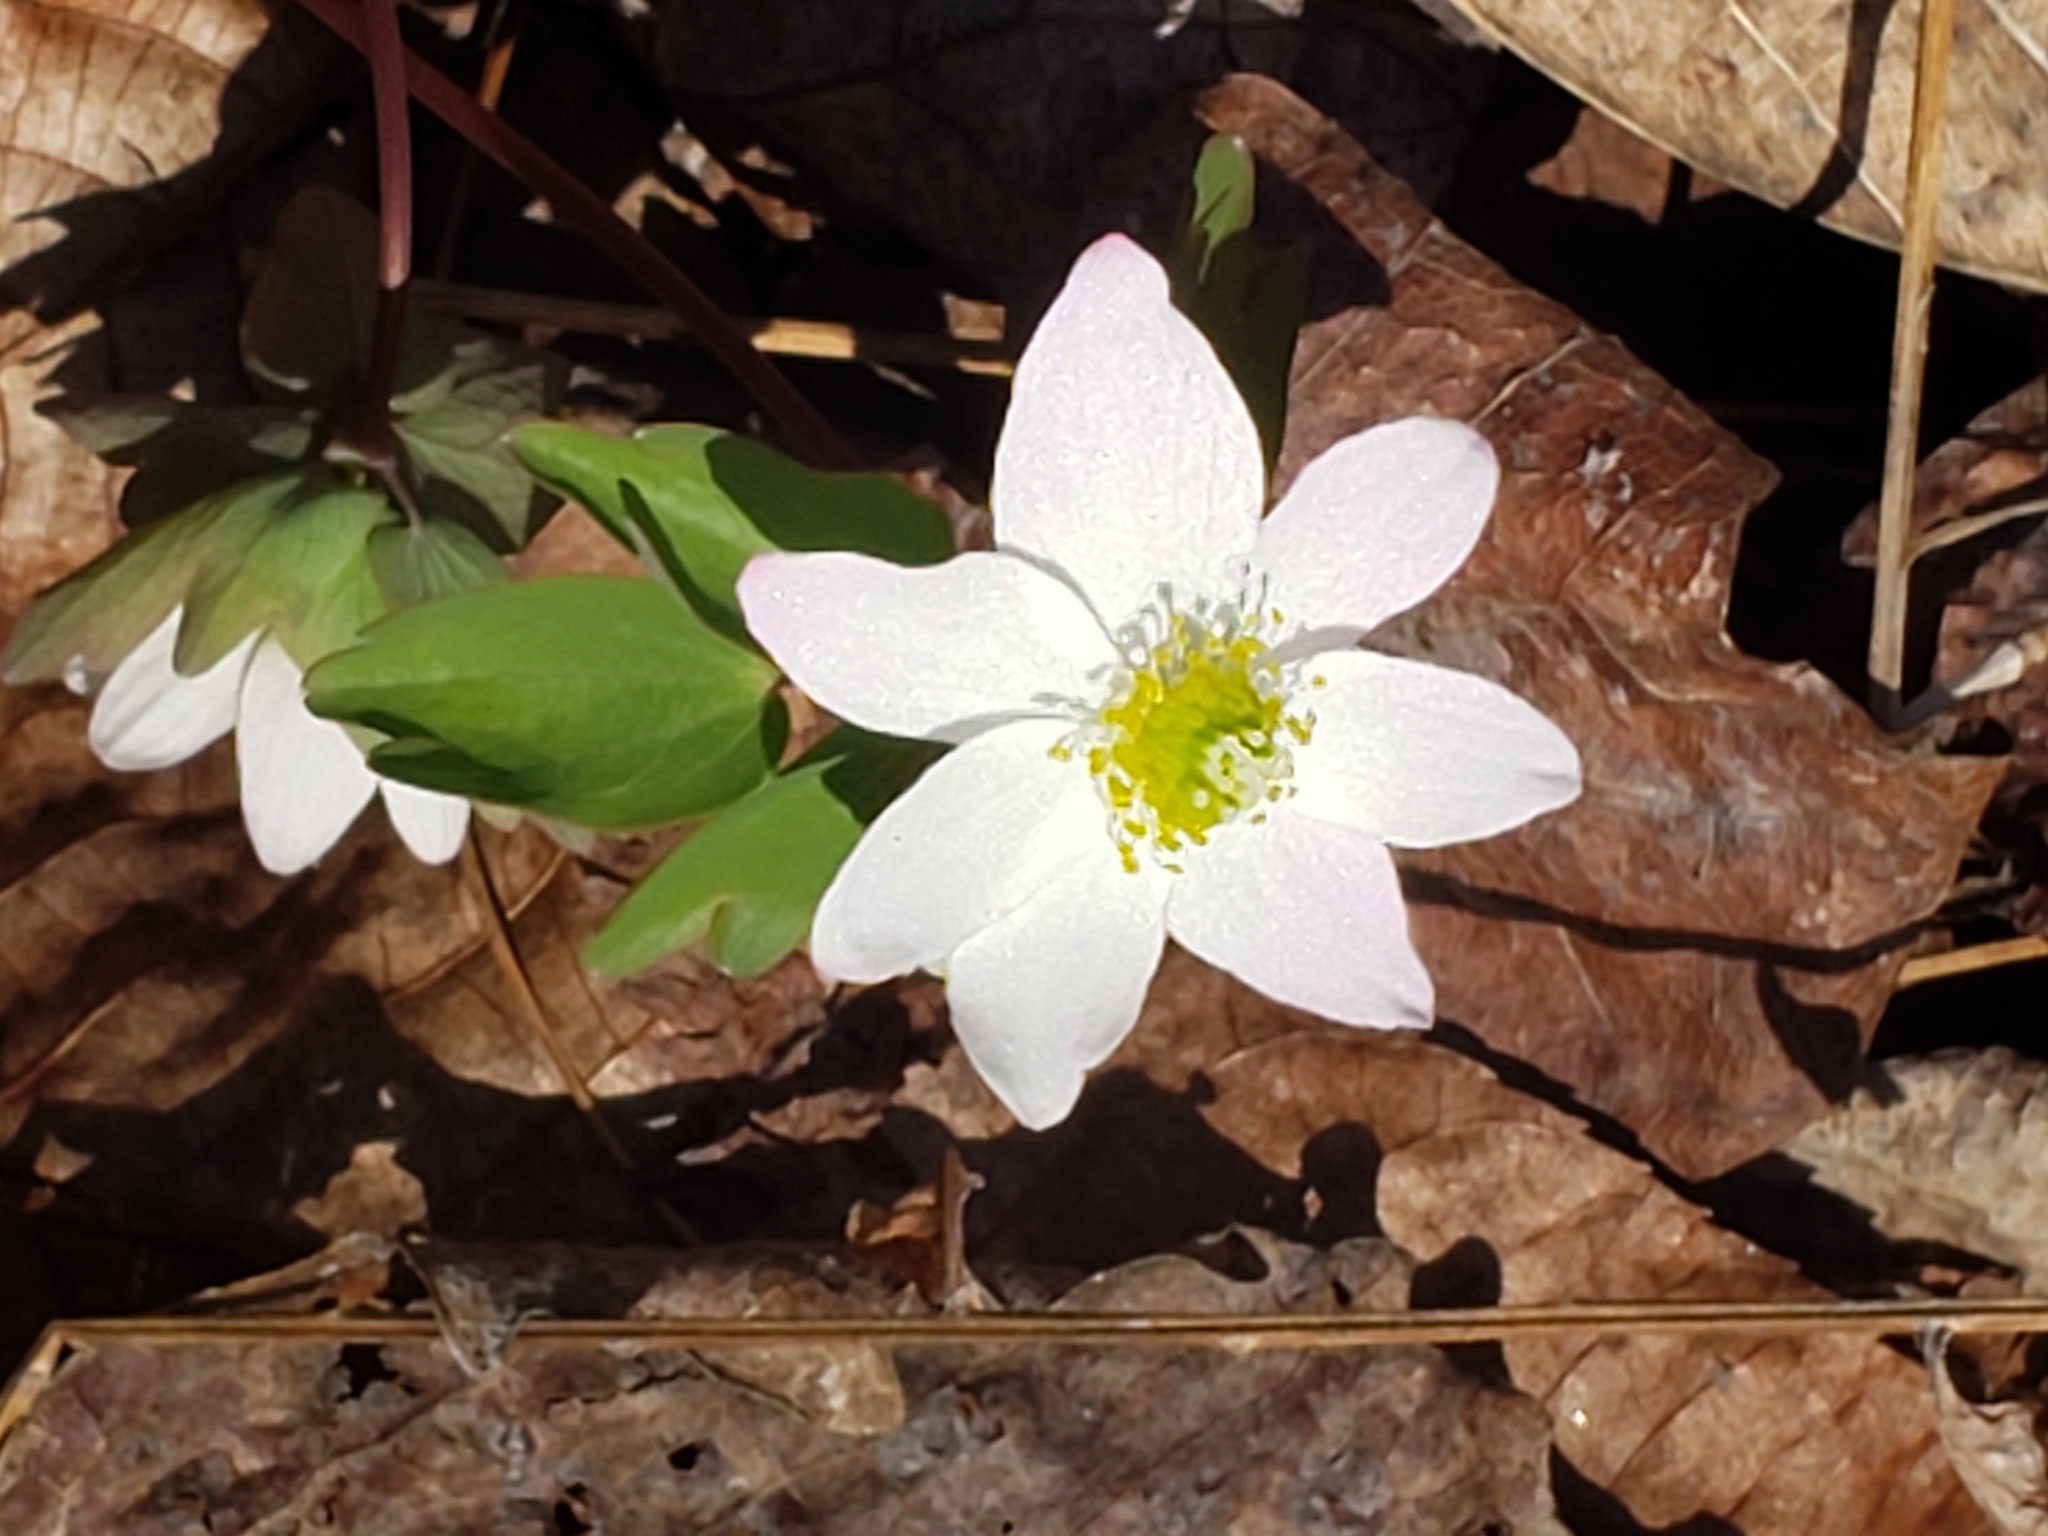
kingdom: Plantae
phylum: Tracheophyta
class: Magnoliopsida
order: Ranunculales
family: Ranunculaceae
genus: Thalictrum
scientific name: Thalictrum thalictroides
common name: Rue-anemone
